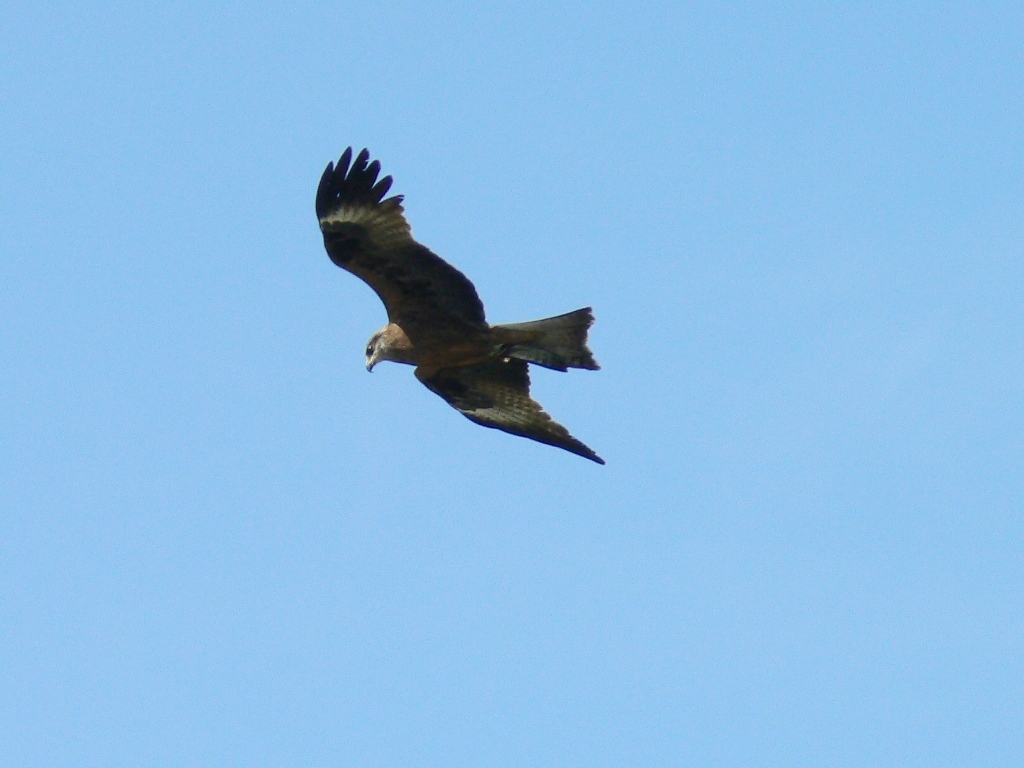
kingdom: Animalia
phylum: Chordata
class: Aves
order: Accipitriformes
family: Accipitridae
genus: Milvus
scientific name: Milvus migrans
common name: Black kite
